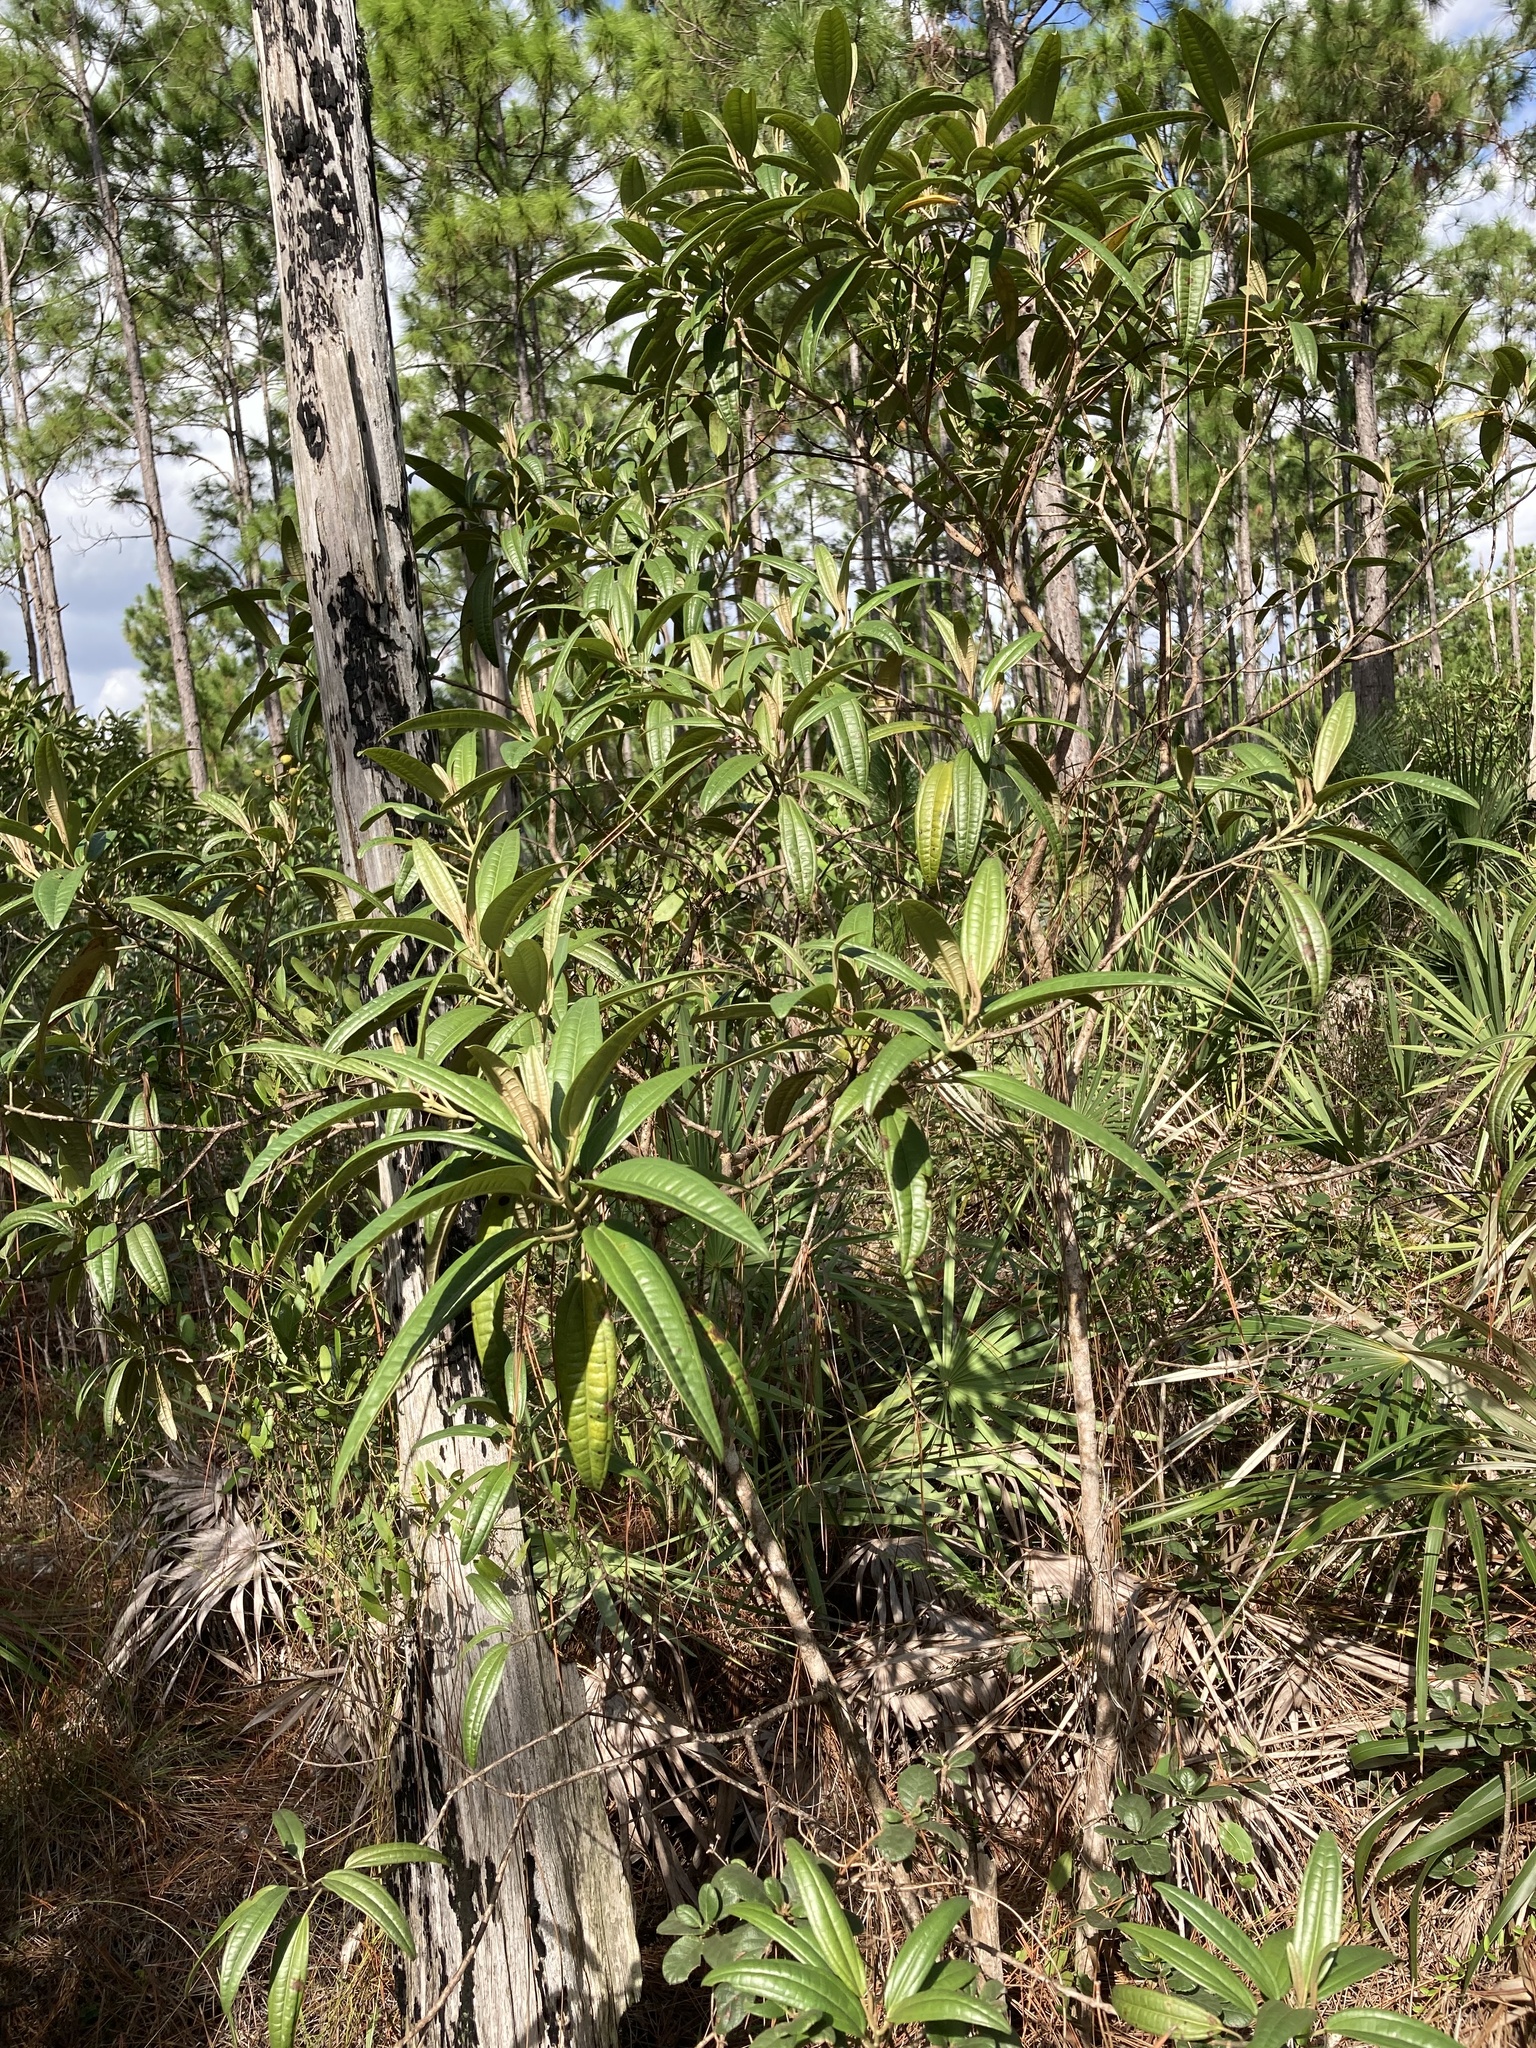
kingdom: Plantae
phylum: Tracheophyta
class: Magnoliopsida
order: Myrtales
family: Melastomataceae
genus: Miconia
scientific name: Miconia bicolor
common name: Johnnyberry
